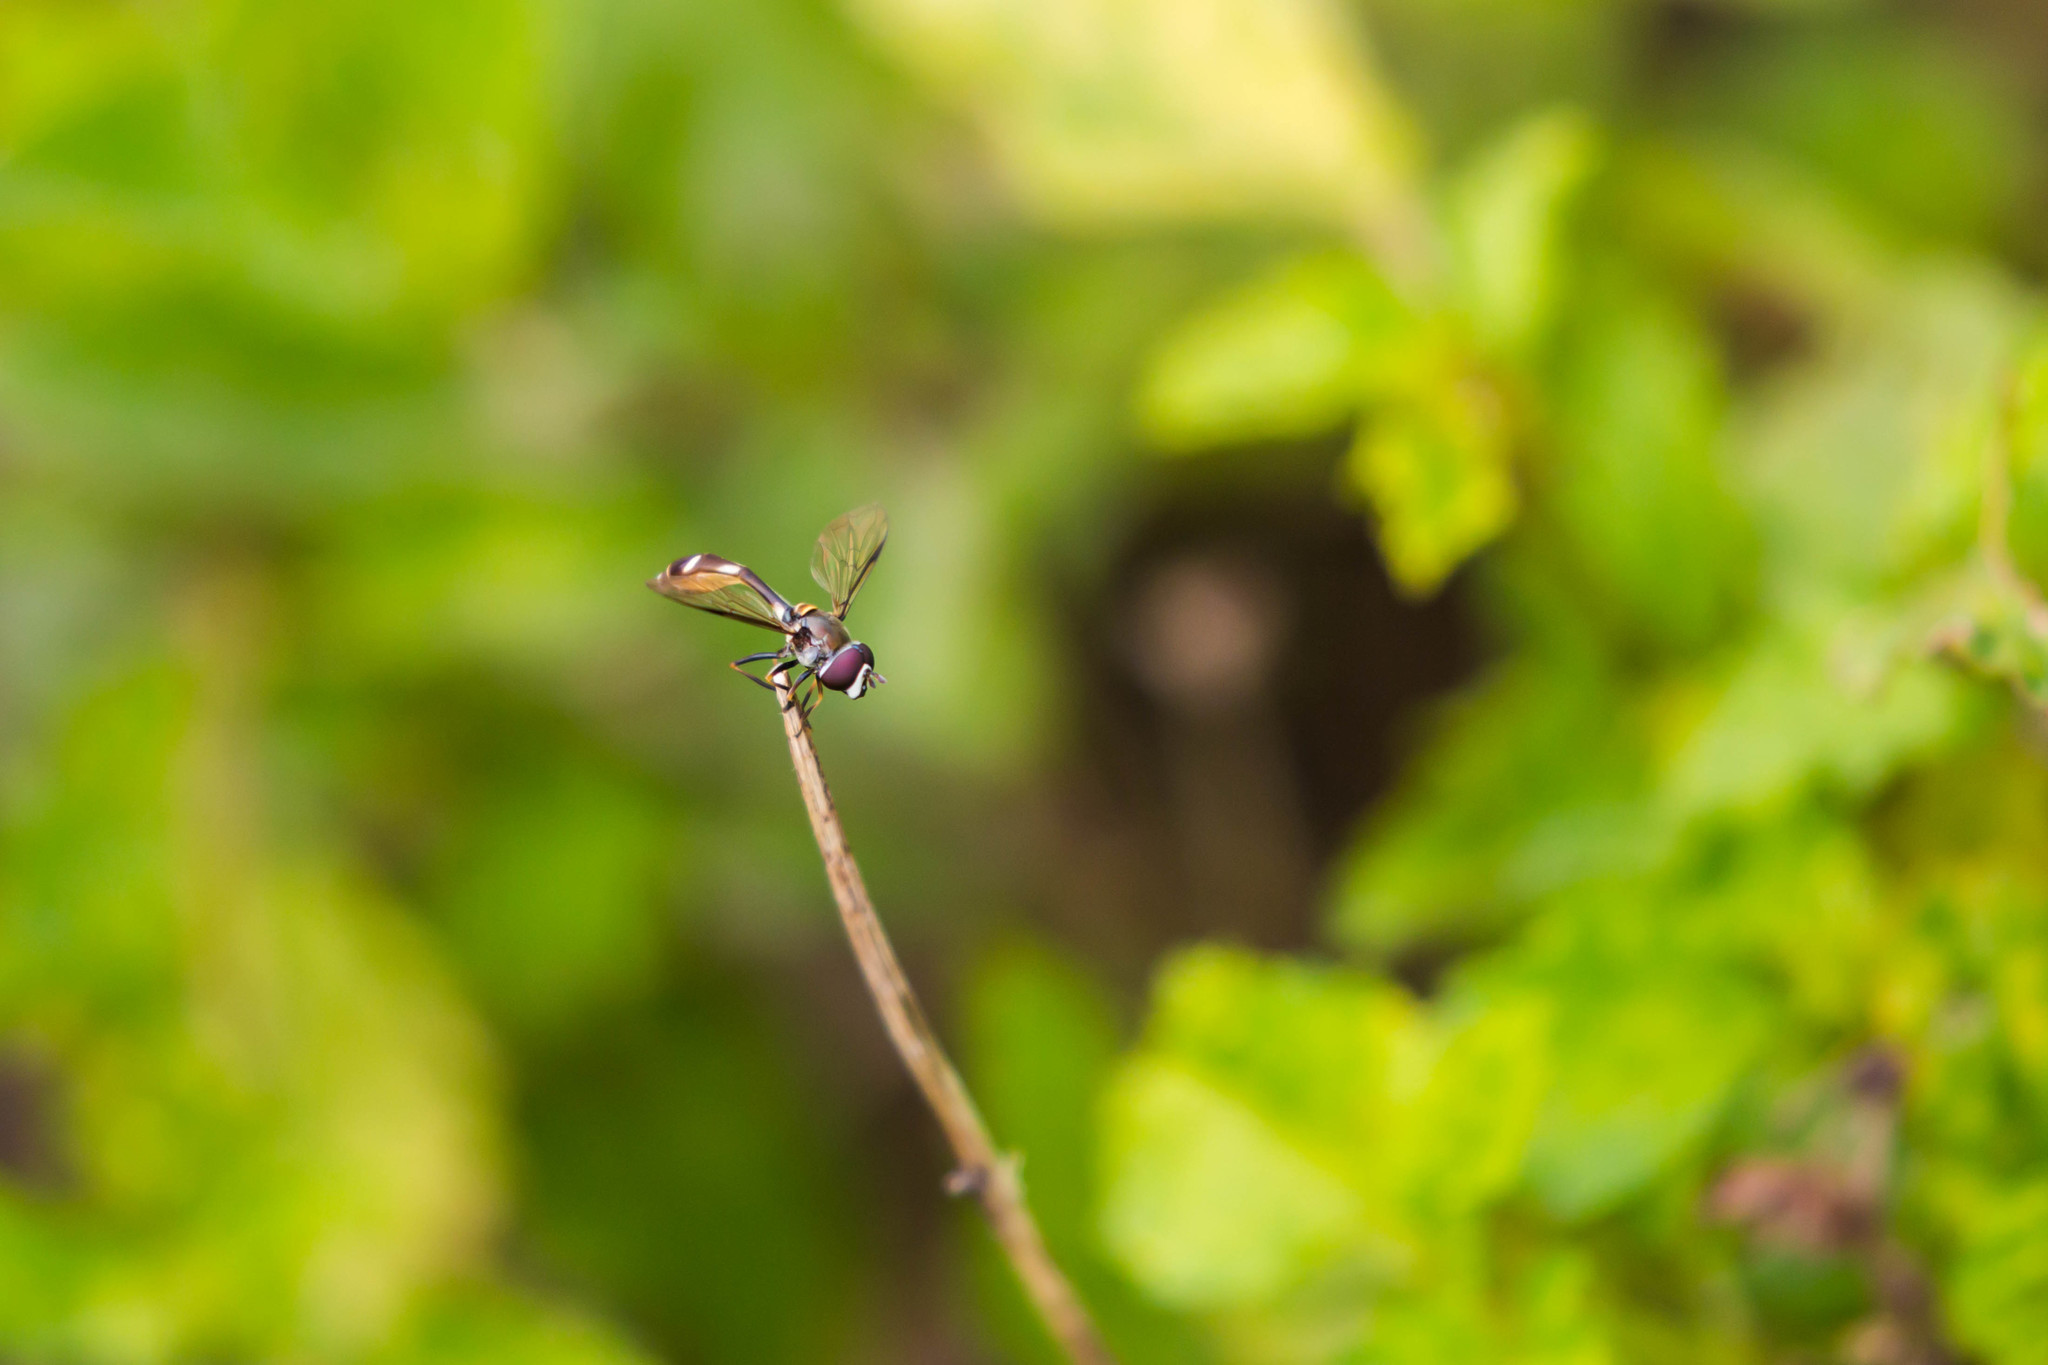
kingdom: Animalia
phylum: Arthropoda
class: Insecta
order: Diptera
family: Syrphidae
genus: Dioprosopa
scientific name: Dioprosopa clavatus
